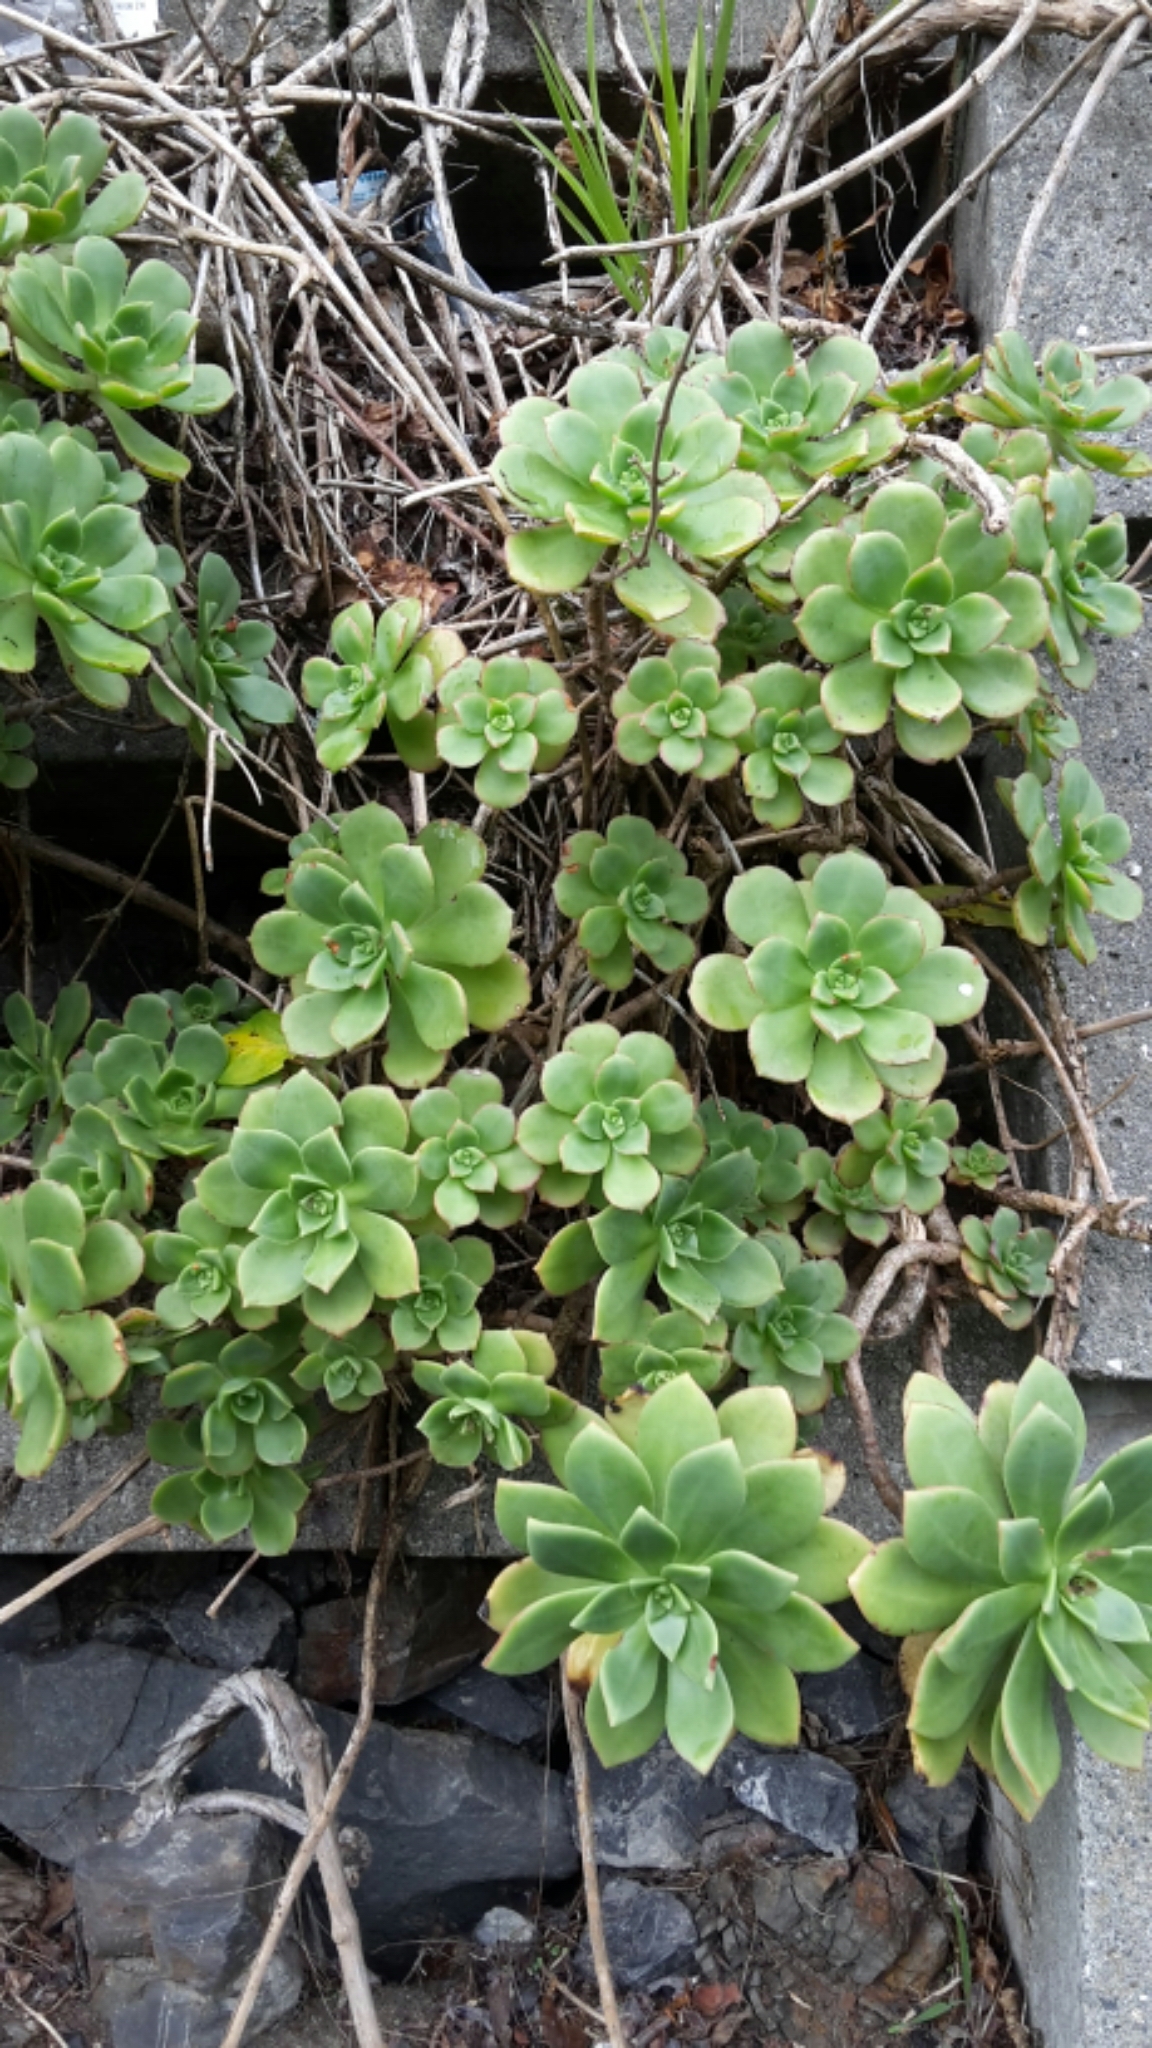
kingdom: Plantae
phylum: Tracheophyta
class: Magnoliopsida
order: Saxifragales
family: Crassulaceae
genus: Aeonium
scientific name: Aeonium haworthii
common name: Haworth's aeonium
